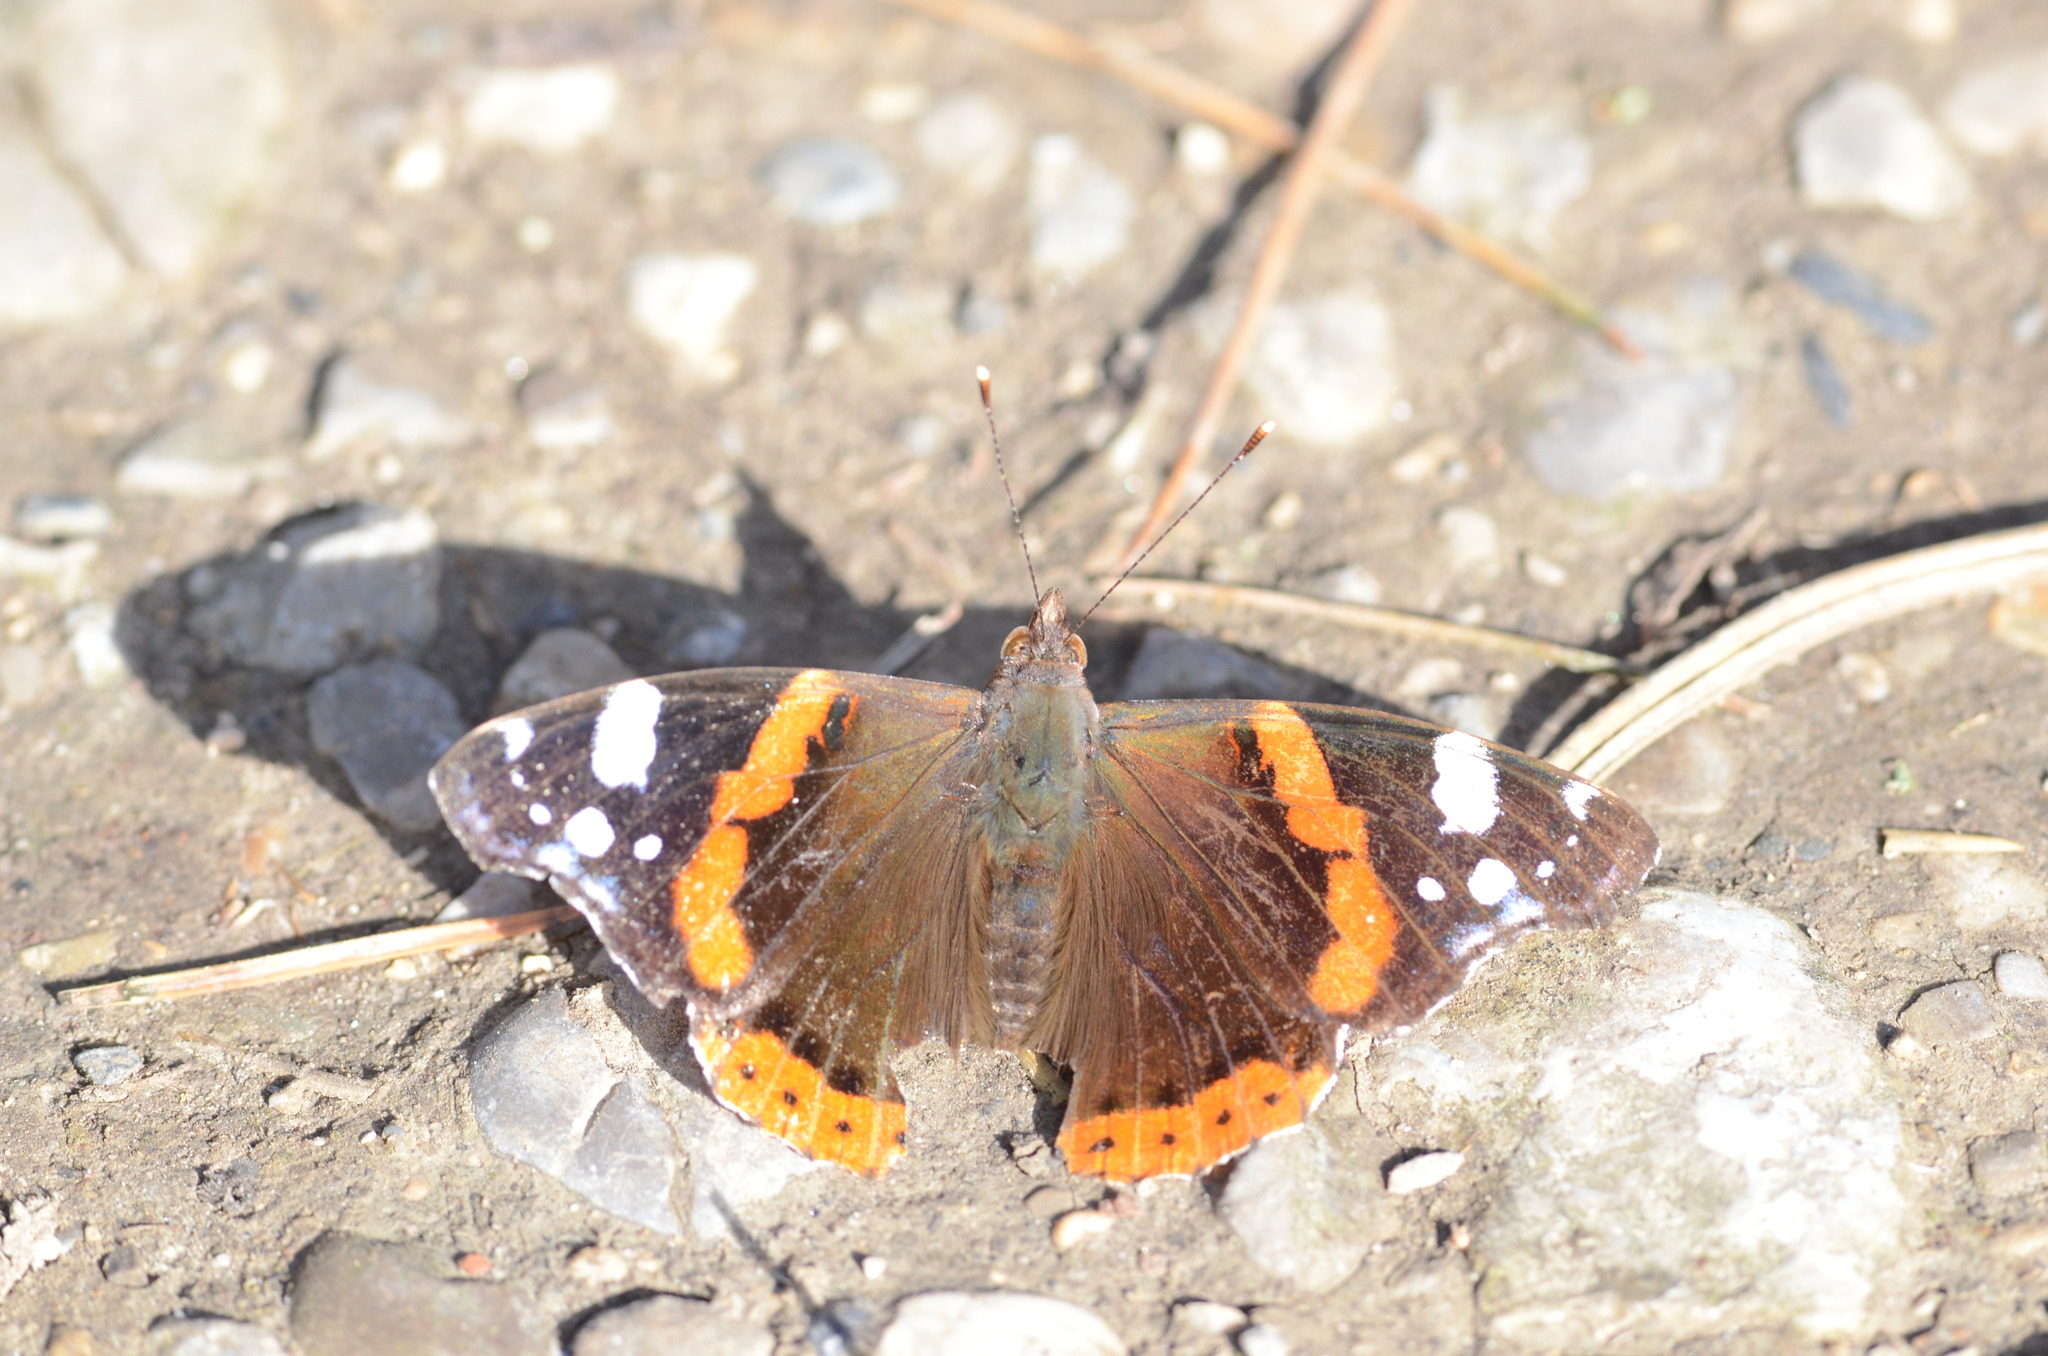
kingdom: Animalia
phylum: Arthropoda
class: Insecta
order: Lepidoptera
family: Nymphalidae
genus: Vanessa
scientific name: Vanessa atalanta
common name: Red admiral
